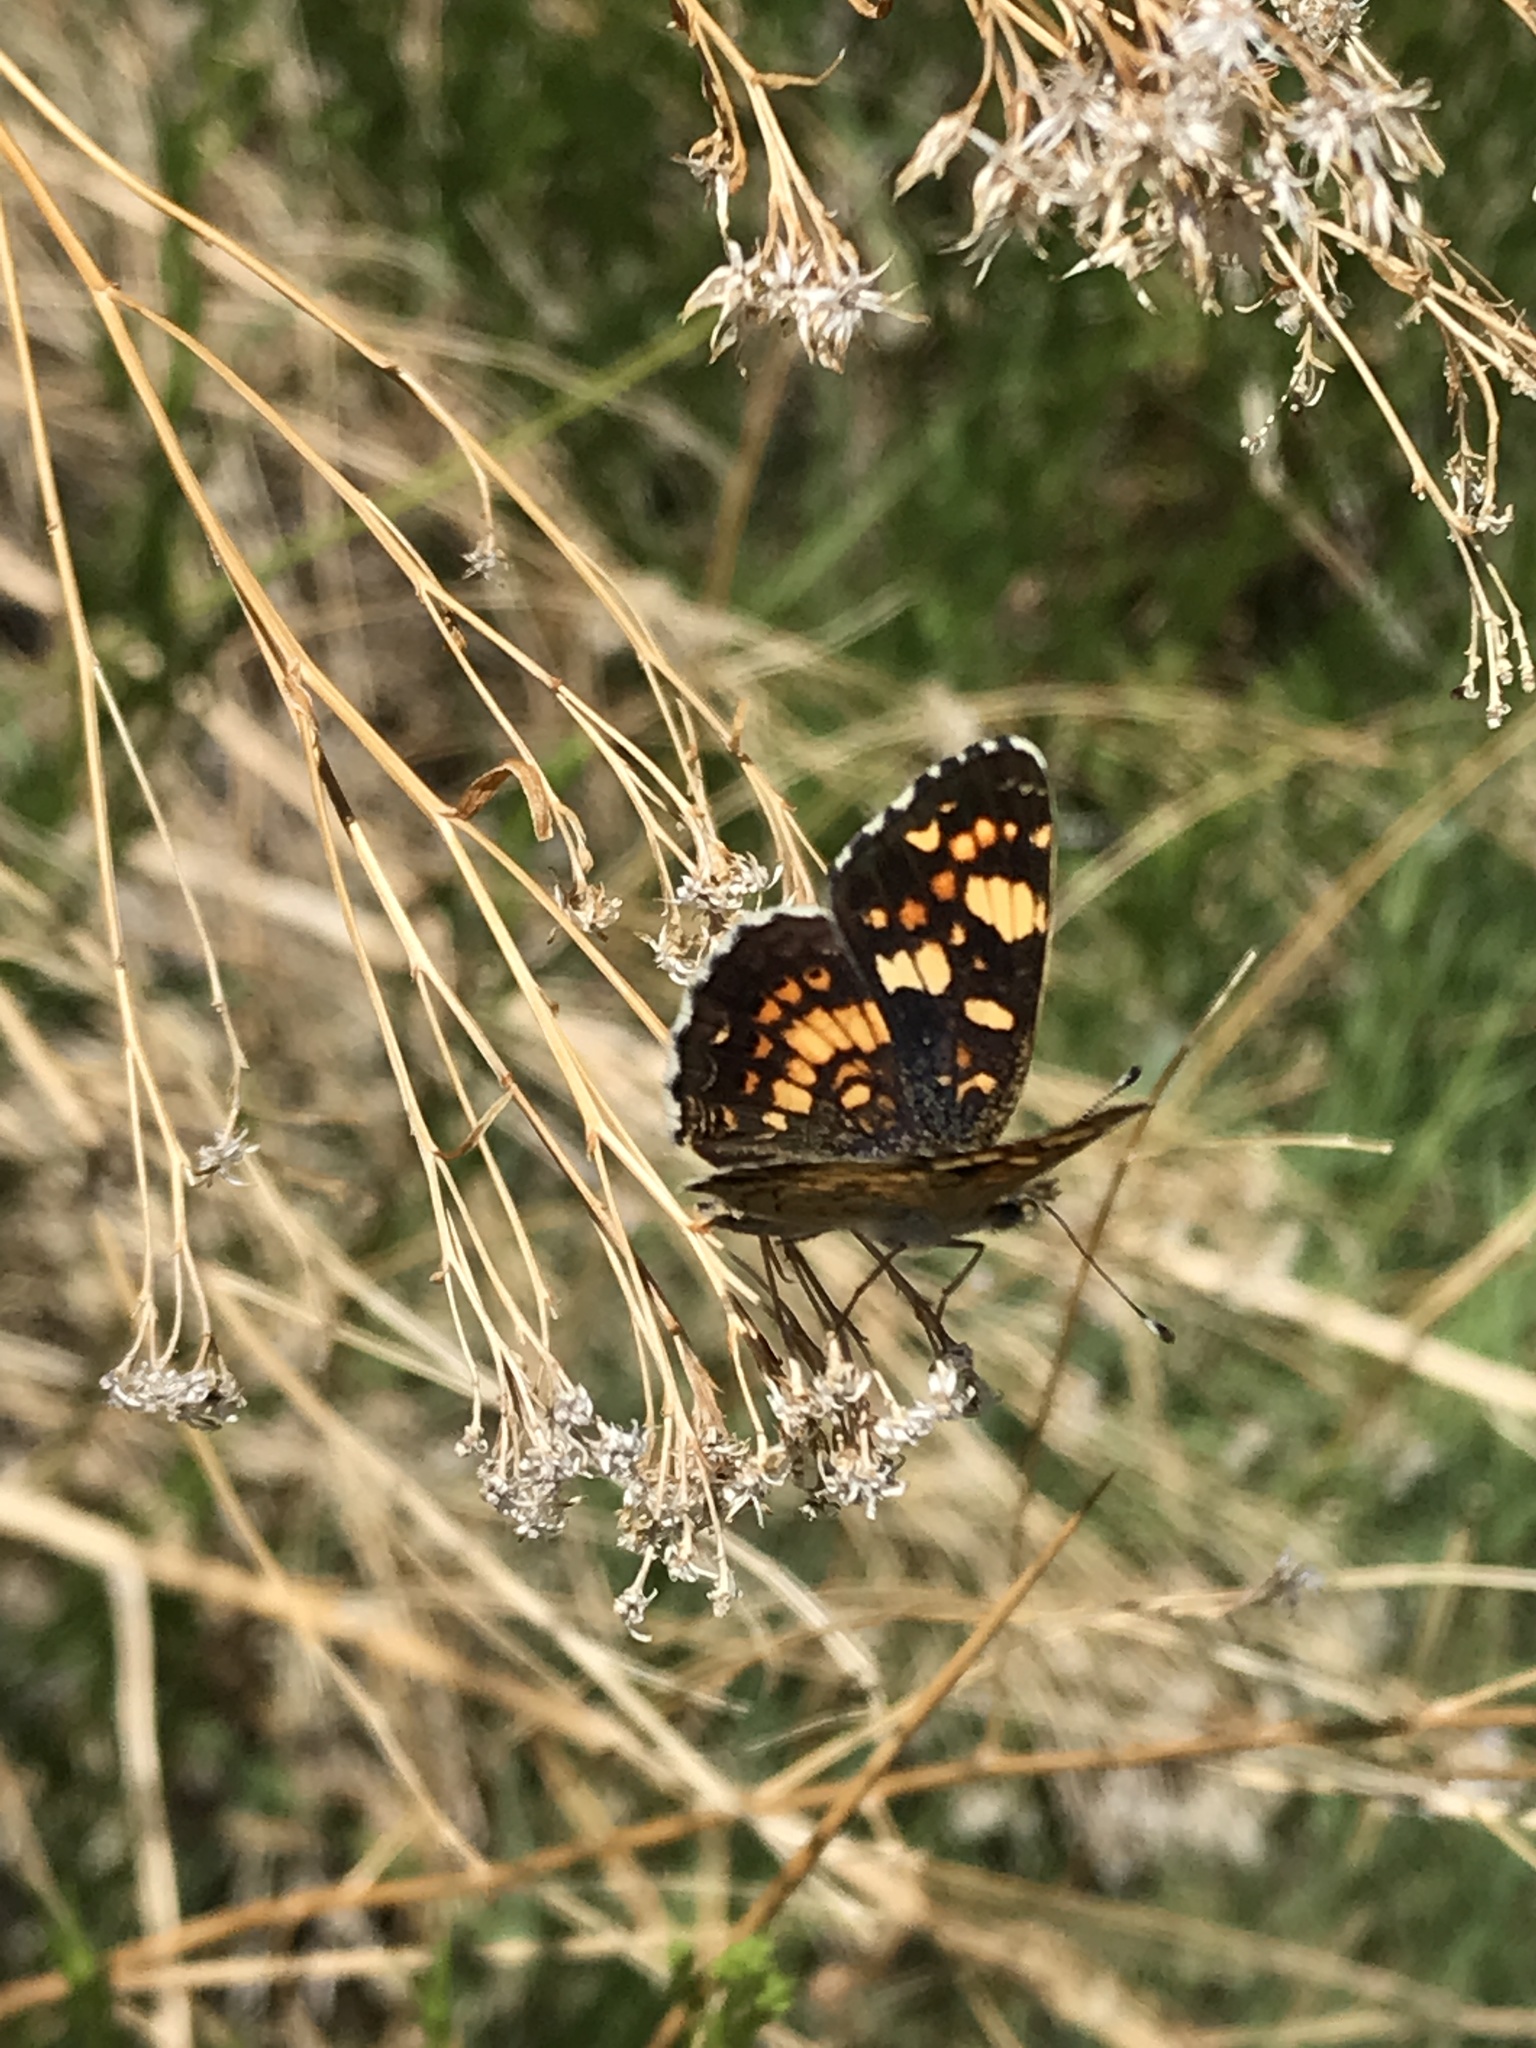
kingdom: Animalia
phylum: Arthropoda
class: Insecta
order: Lepidoptera
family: Nymphalidae
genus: Phyciodes
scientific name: Phyciodes tharos
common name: Pearl crescent
